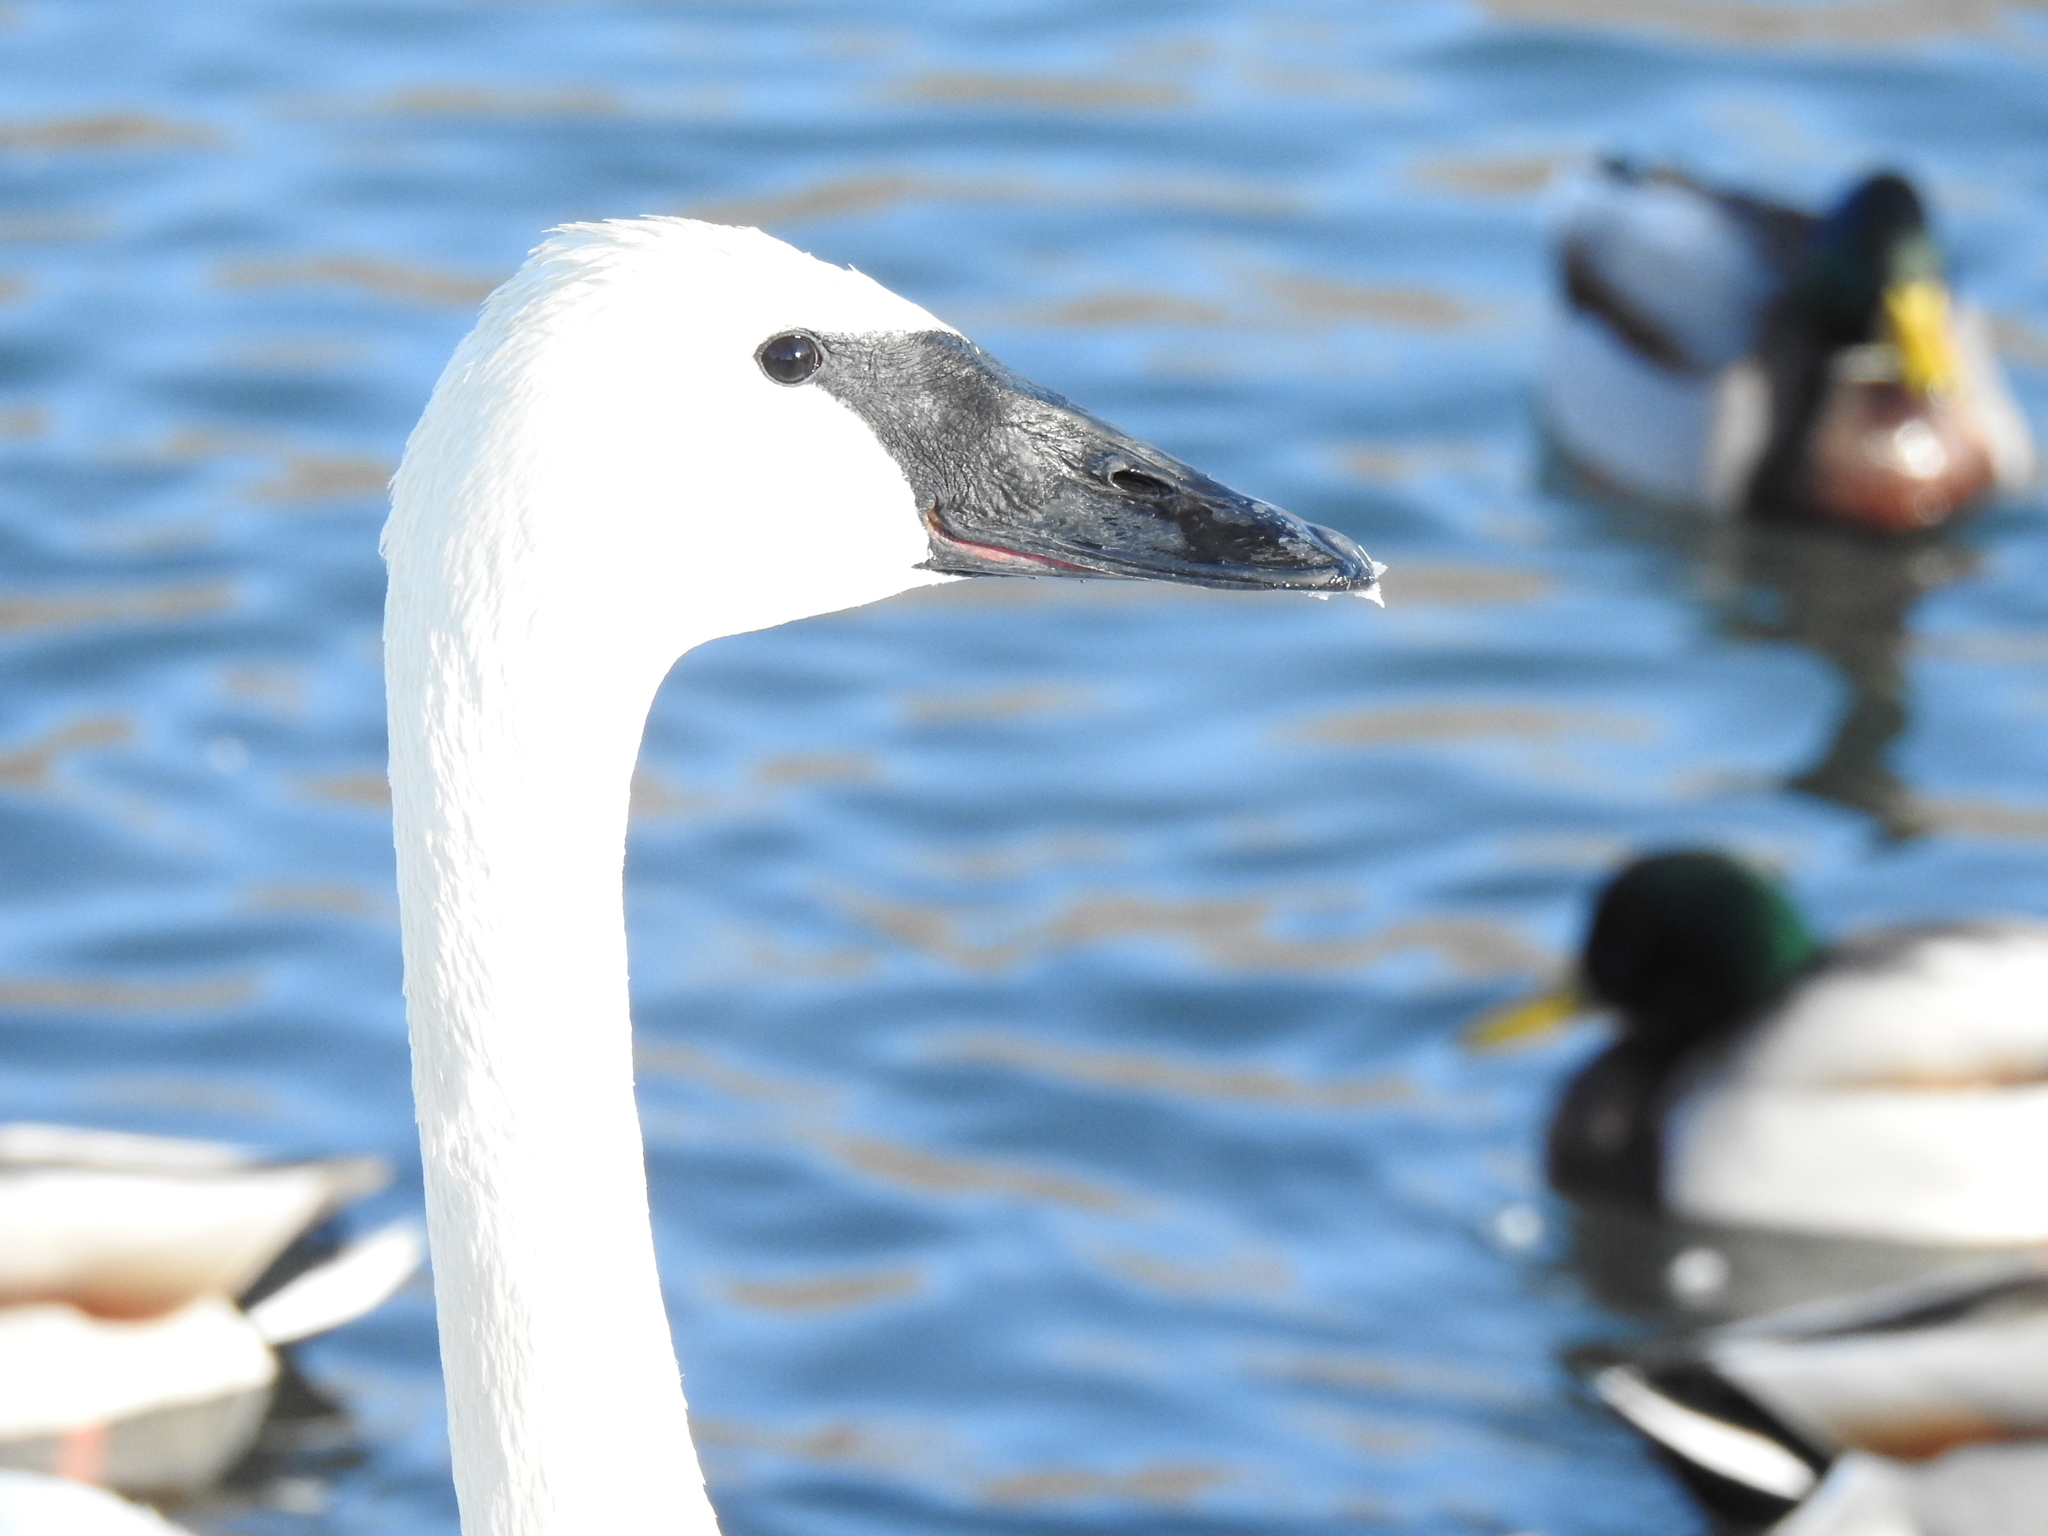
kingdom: Animalia
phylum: Chordata
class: Aves
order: Anseriformes
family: Anatidae
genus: Cygnus
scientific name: Cygnus buccinator
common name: Trumpeter swan
